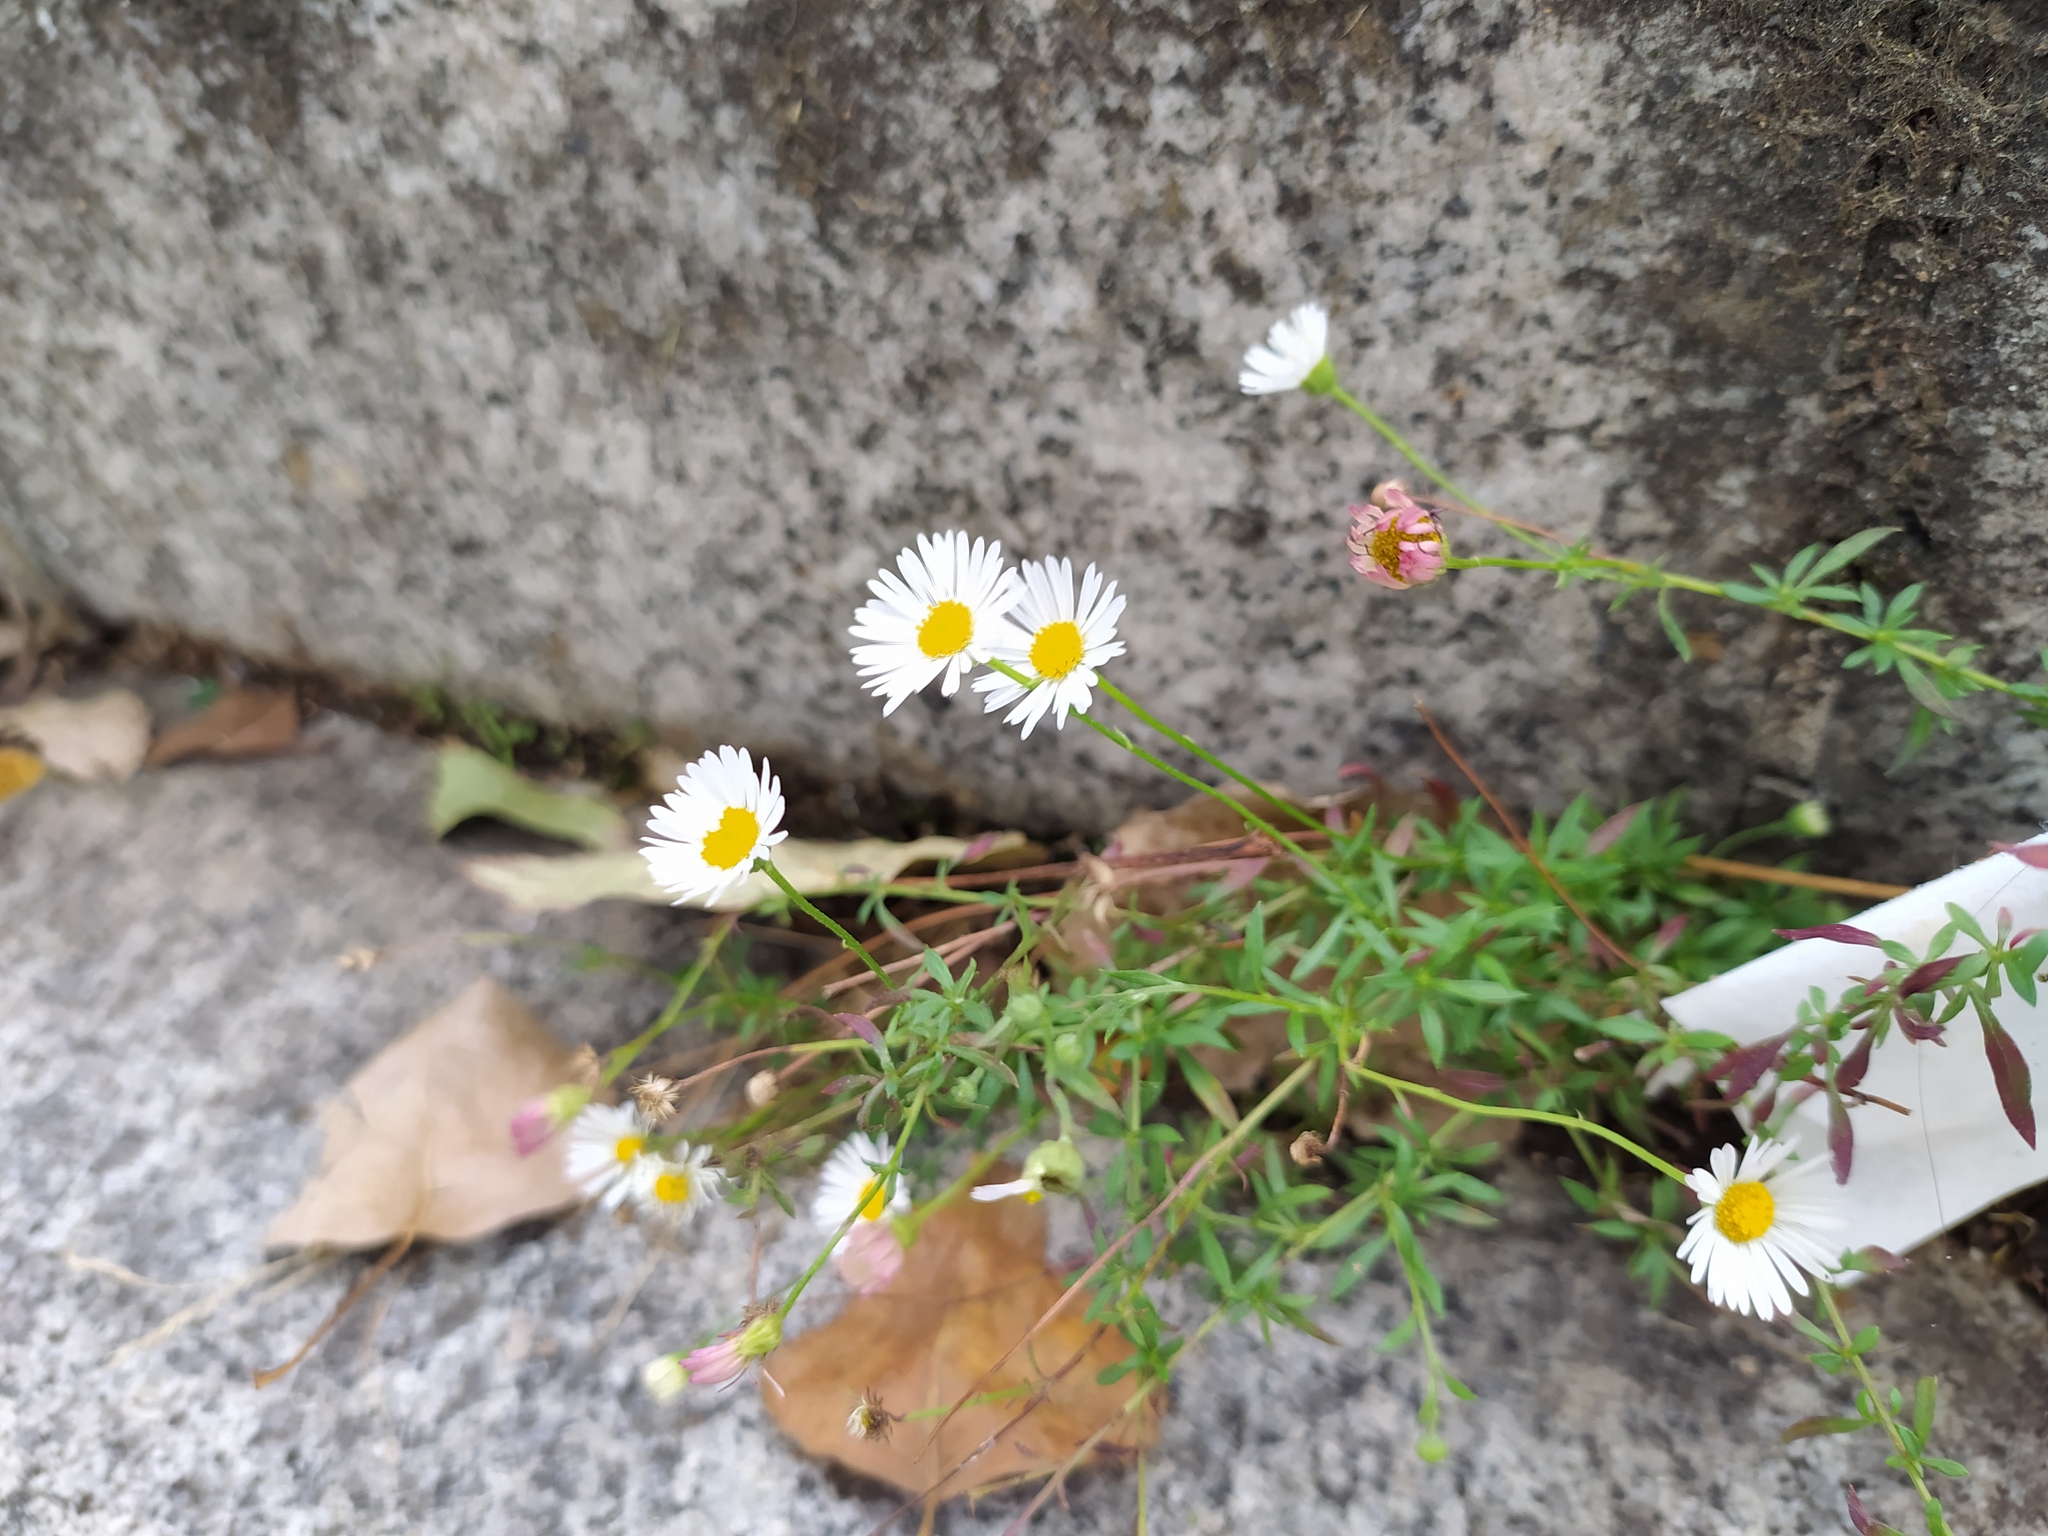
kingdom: Plantae
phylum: Tracheophyta
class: Magnoliopsida
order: Asterales
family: Asteraceae
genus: Erigeron
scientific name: Erigeron karvinskianus
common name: Mexican fleabane
